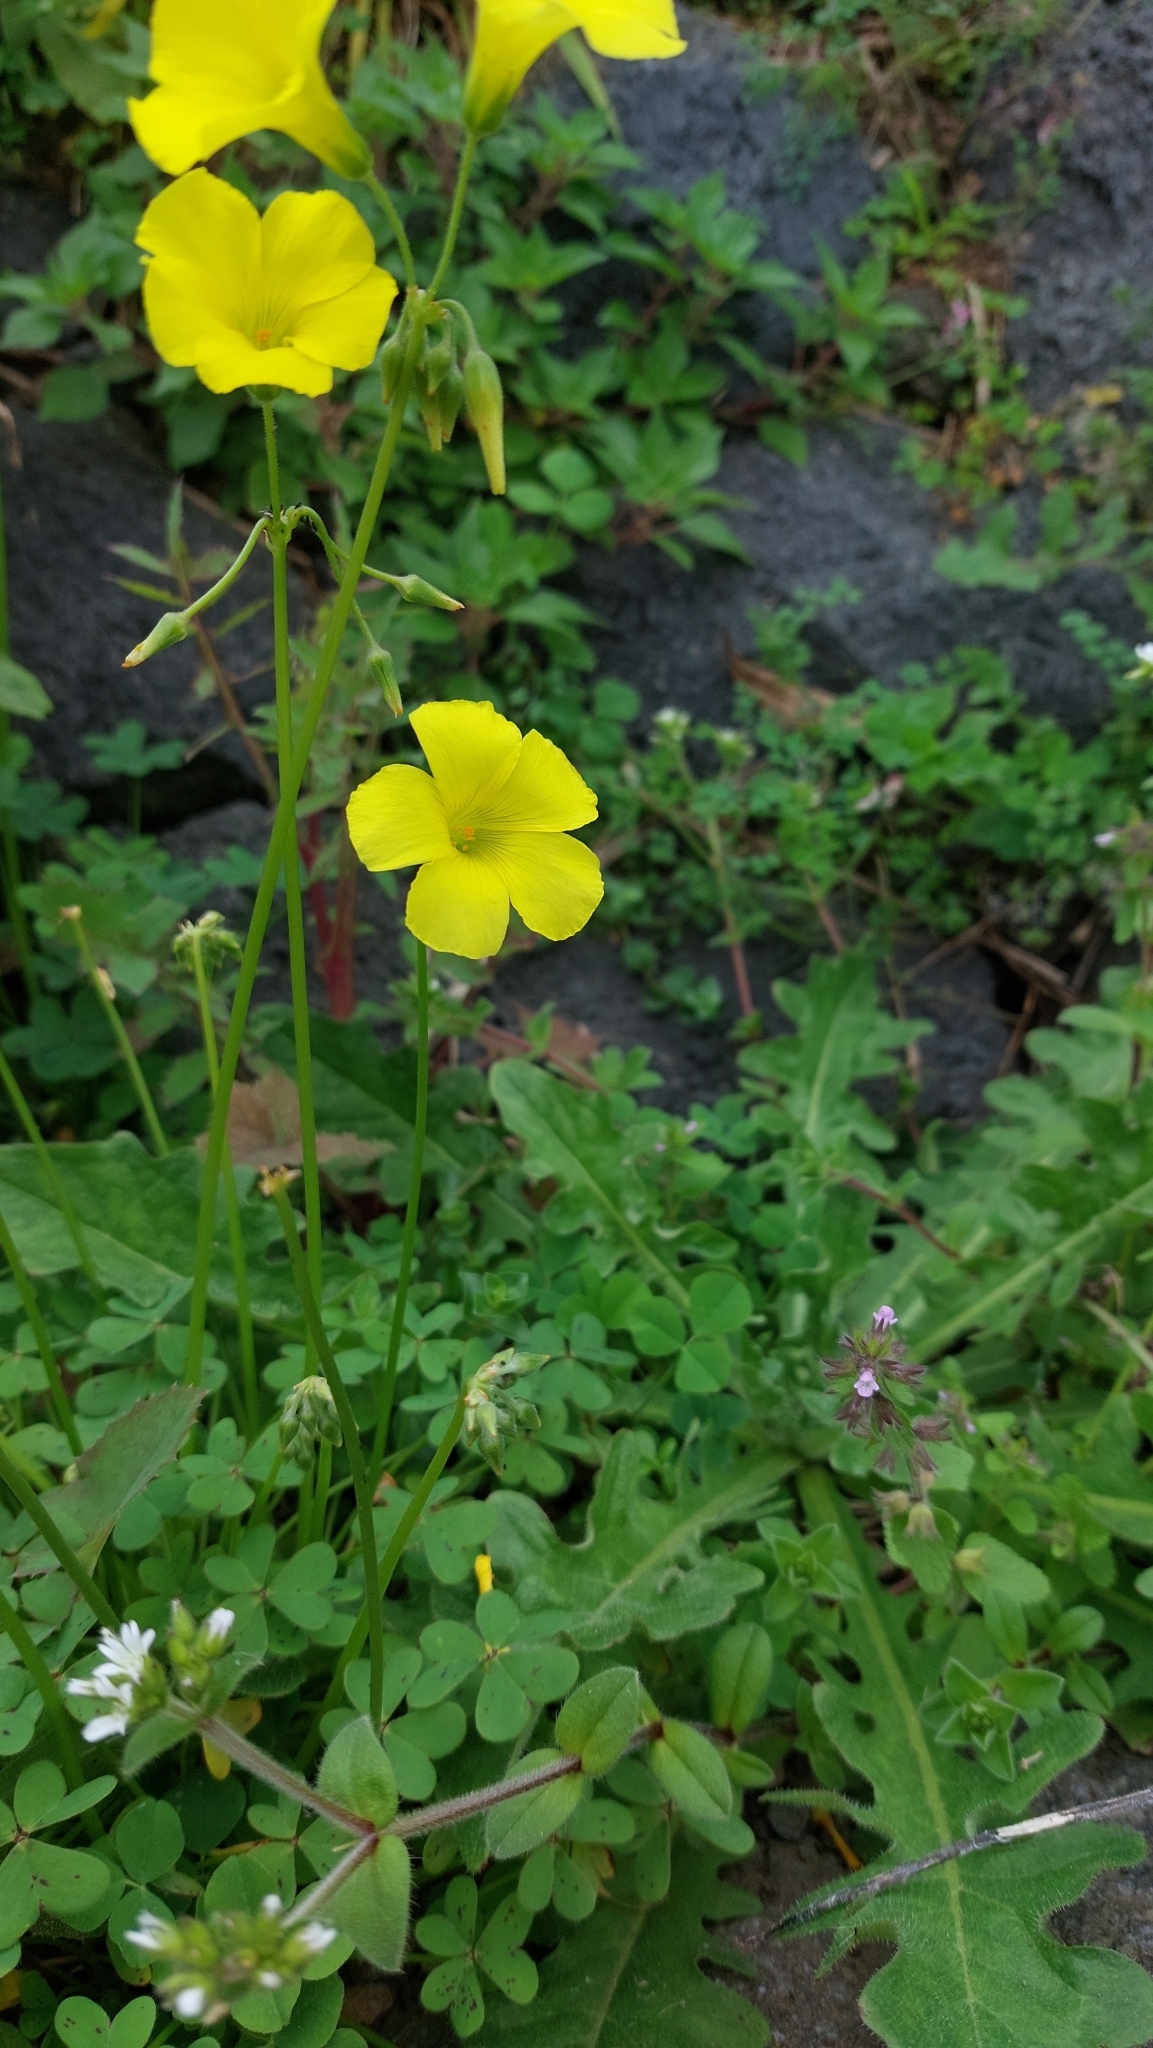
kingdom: Plantae
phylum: Tracheophyta
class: Magnoliopsida
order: Oxalidales
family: Oxalidaceae
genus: Oxalis
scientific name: Oxalis pes-caprae
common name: Bermuda-buttercup
